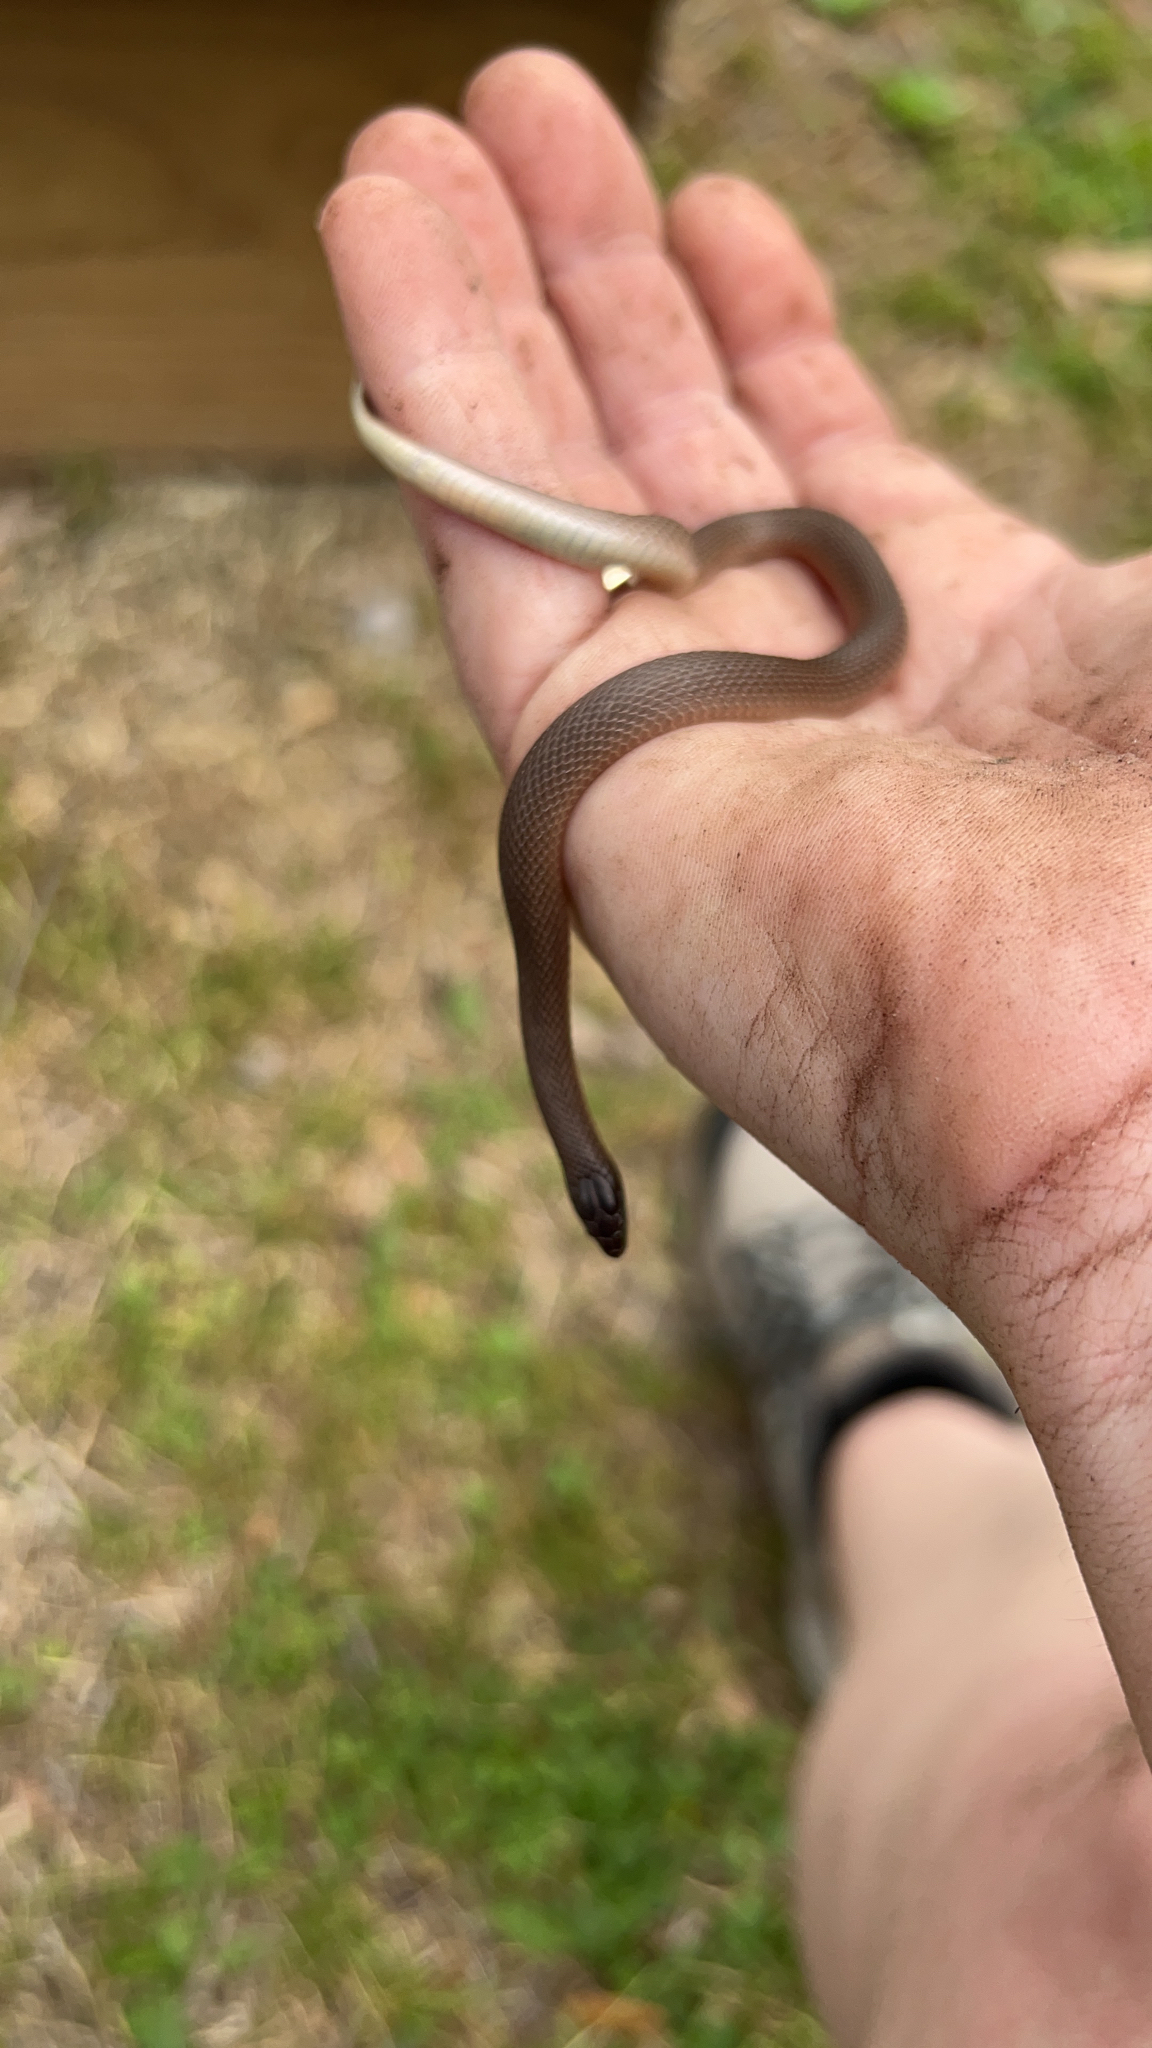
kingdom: Animalia
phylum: Chordata
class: Squamata
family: Colubridae
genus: Haldea
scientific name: Haldea striatula
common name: Rough earth snake
